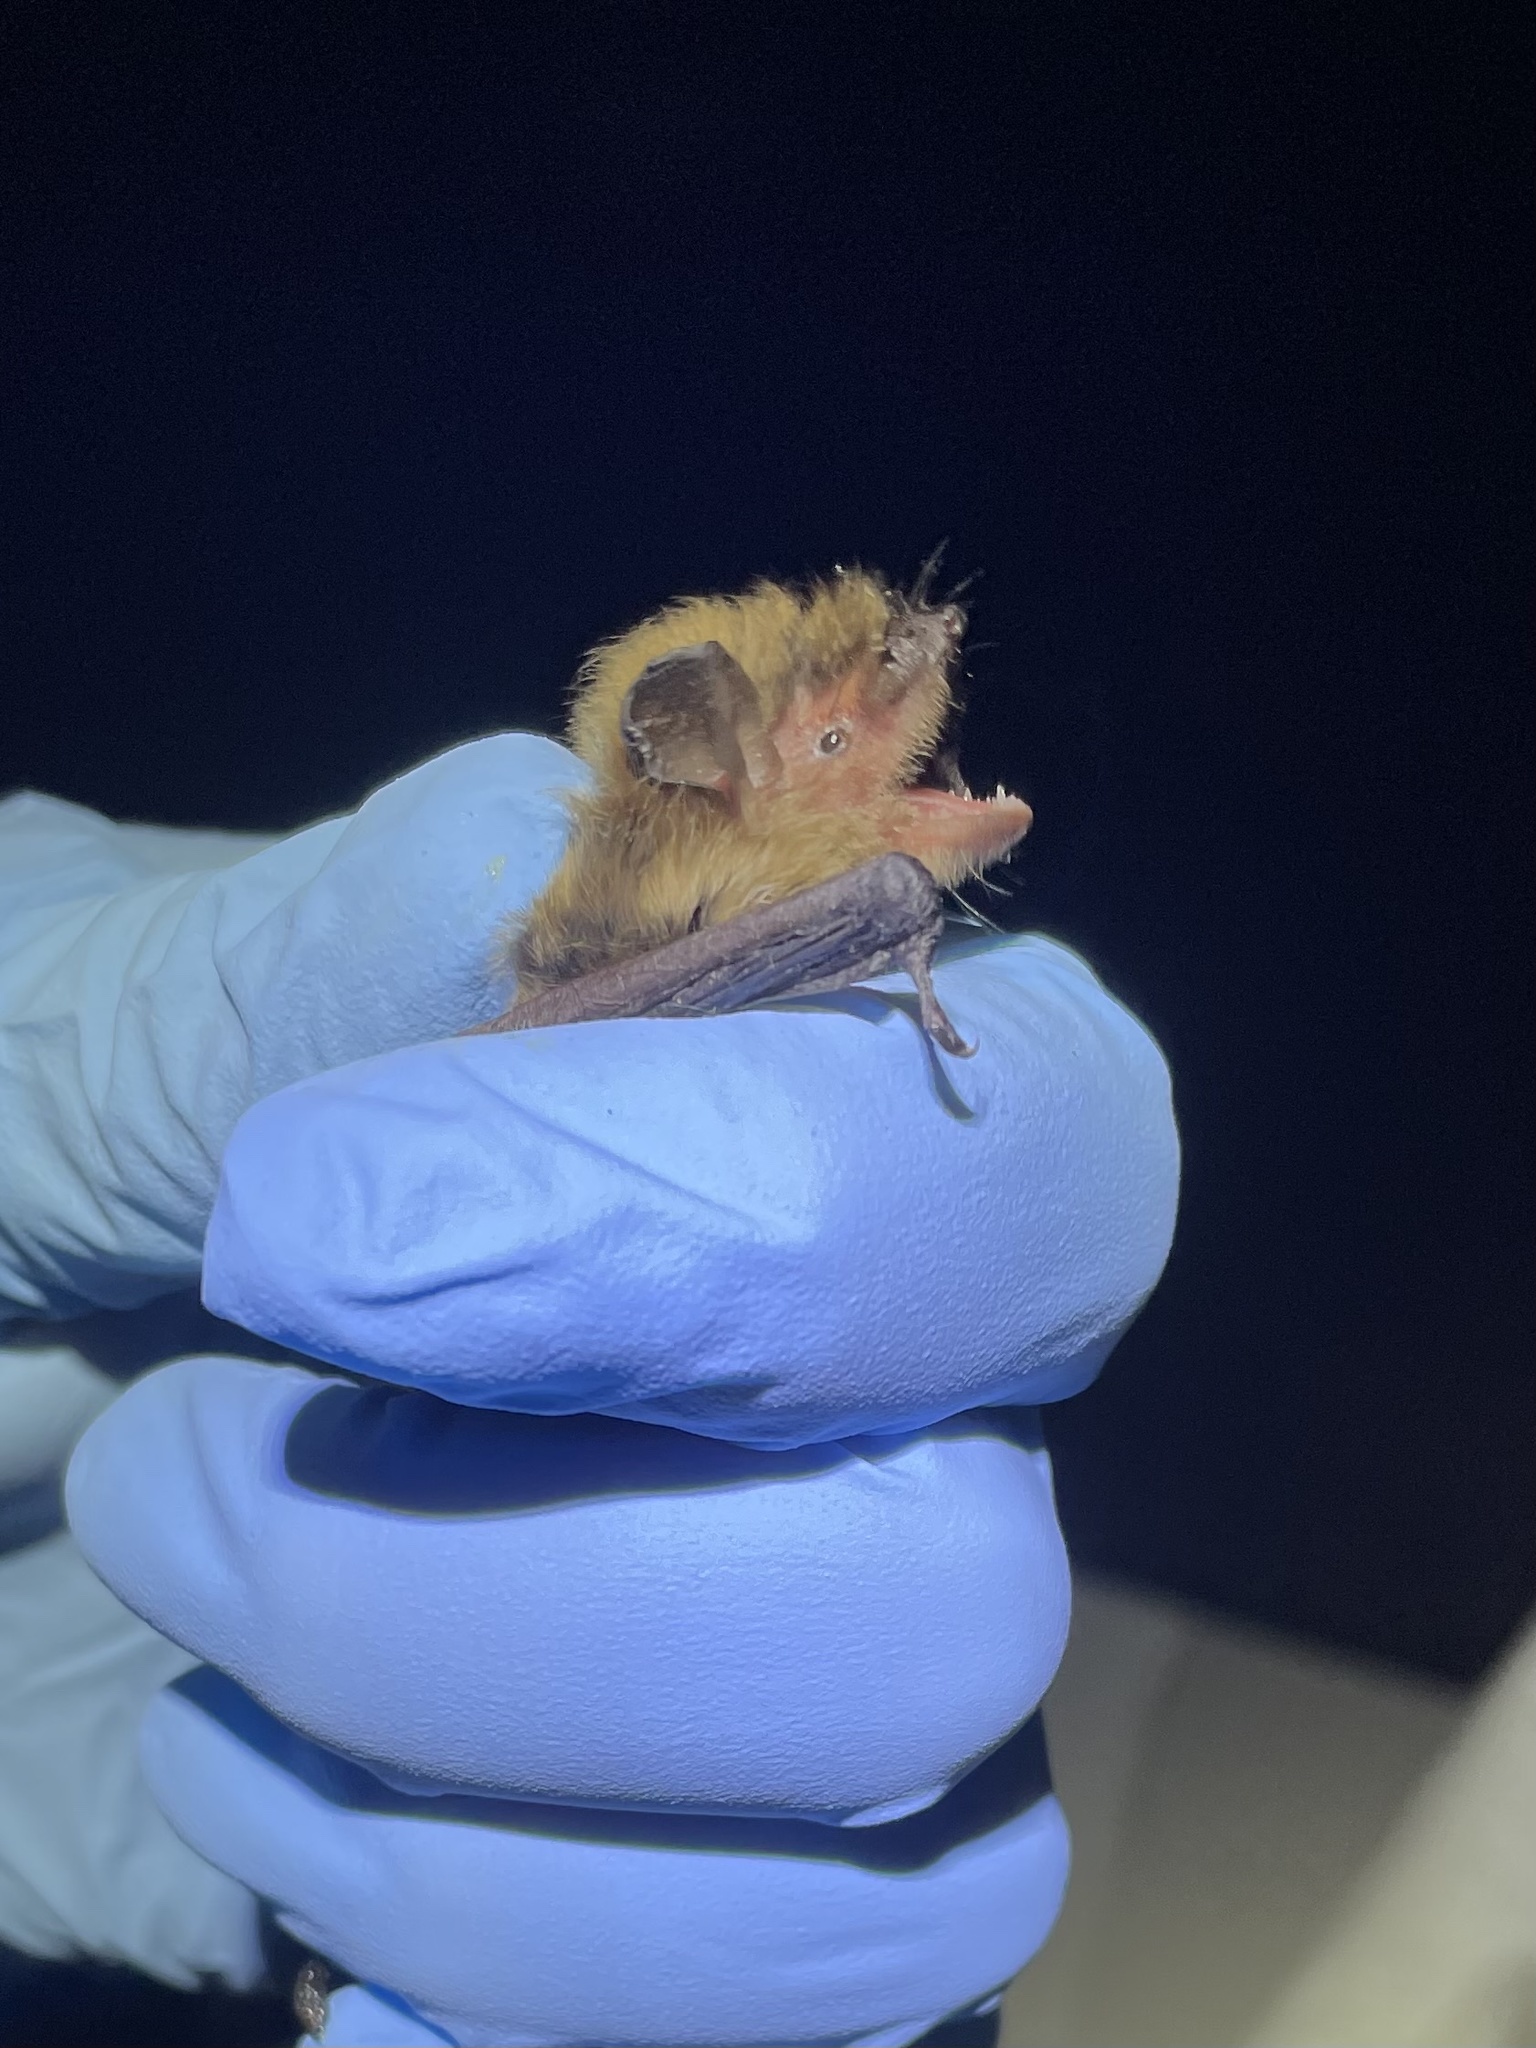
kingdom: Animalia
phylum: Chordata
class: Mammalia
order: Chiroptera
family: Vespertilionidae
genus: Myotis
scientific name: Myotis yumanensis
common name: Yuma myotis
